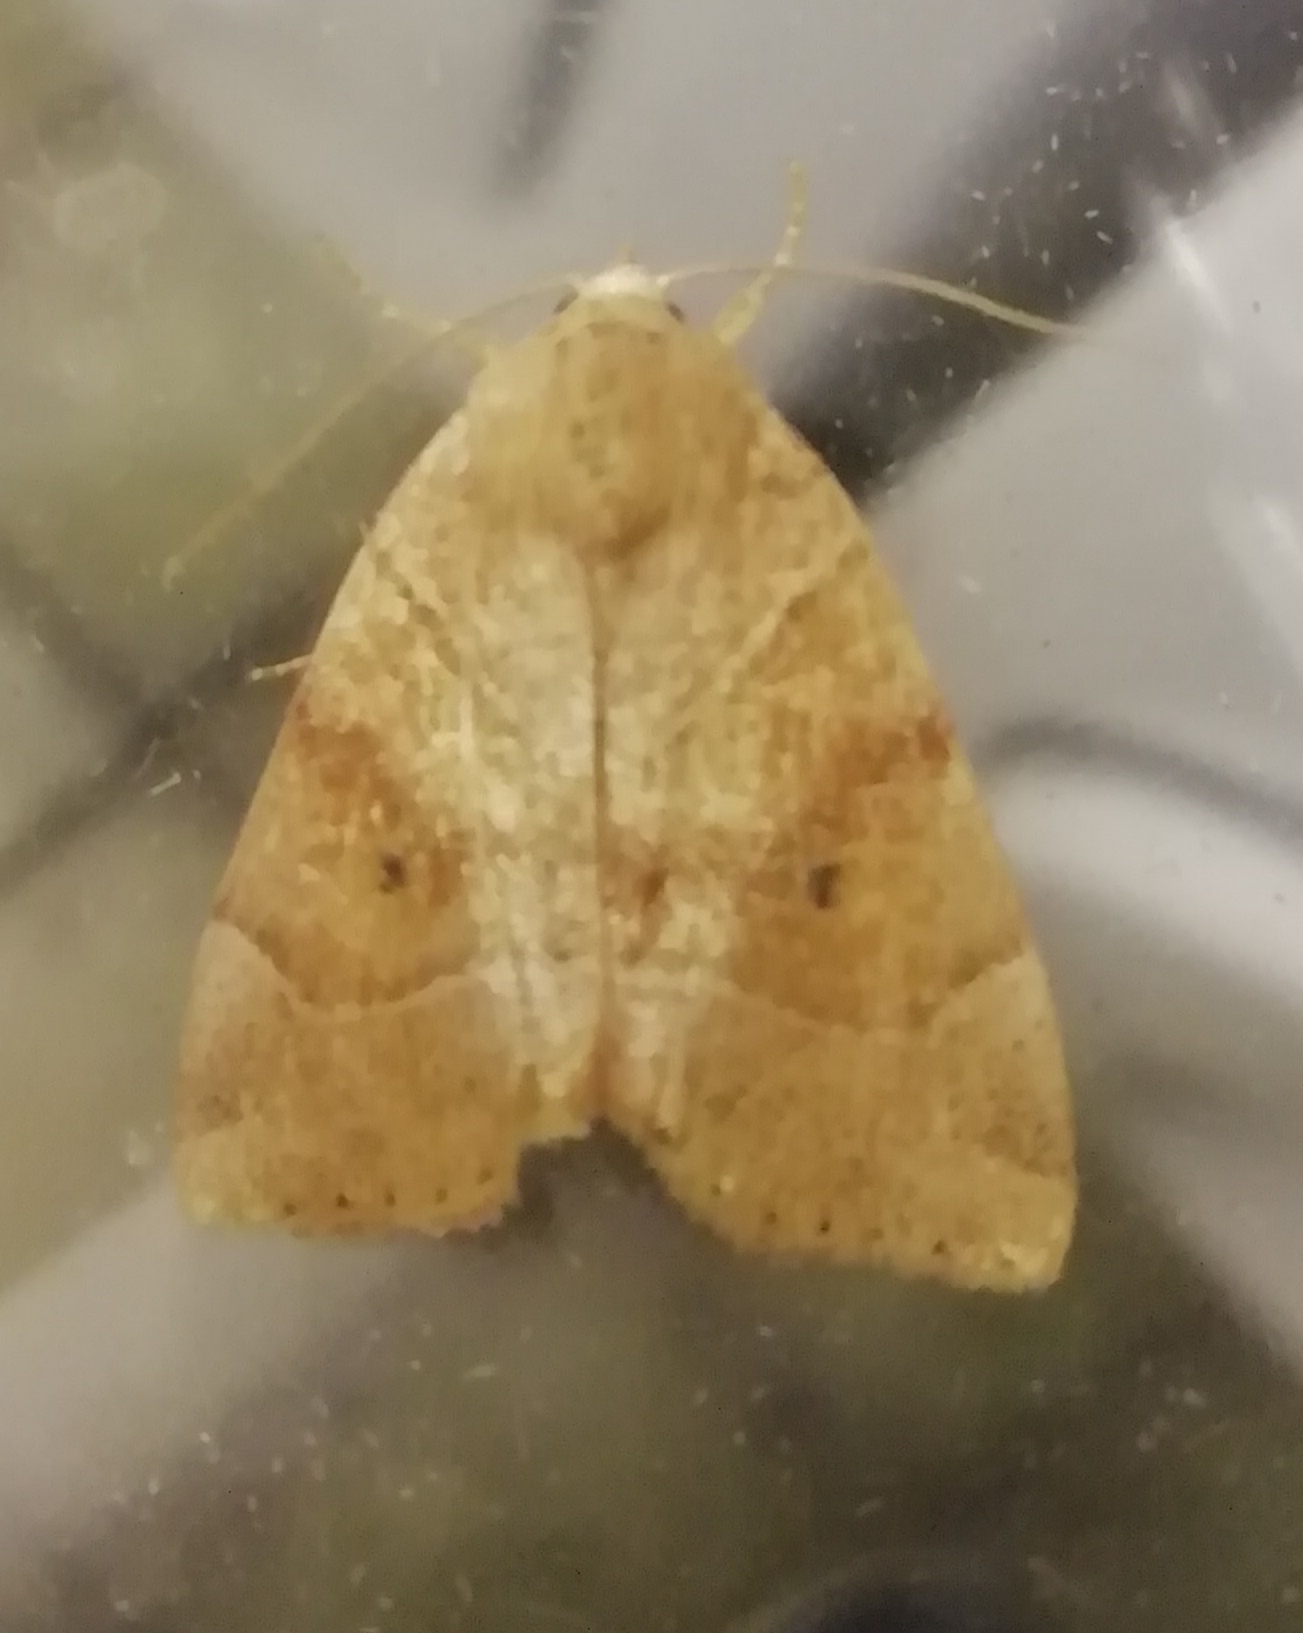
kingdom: Animalia
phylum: Arthropoda
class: Insecta
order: Lepidoptera
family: Noctuidae
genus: Cosmia
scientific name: Cosmia trapezina
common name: Dun-bar
